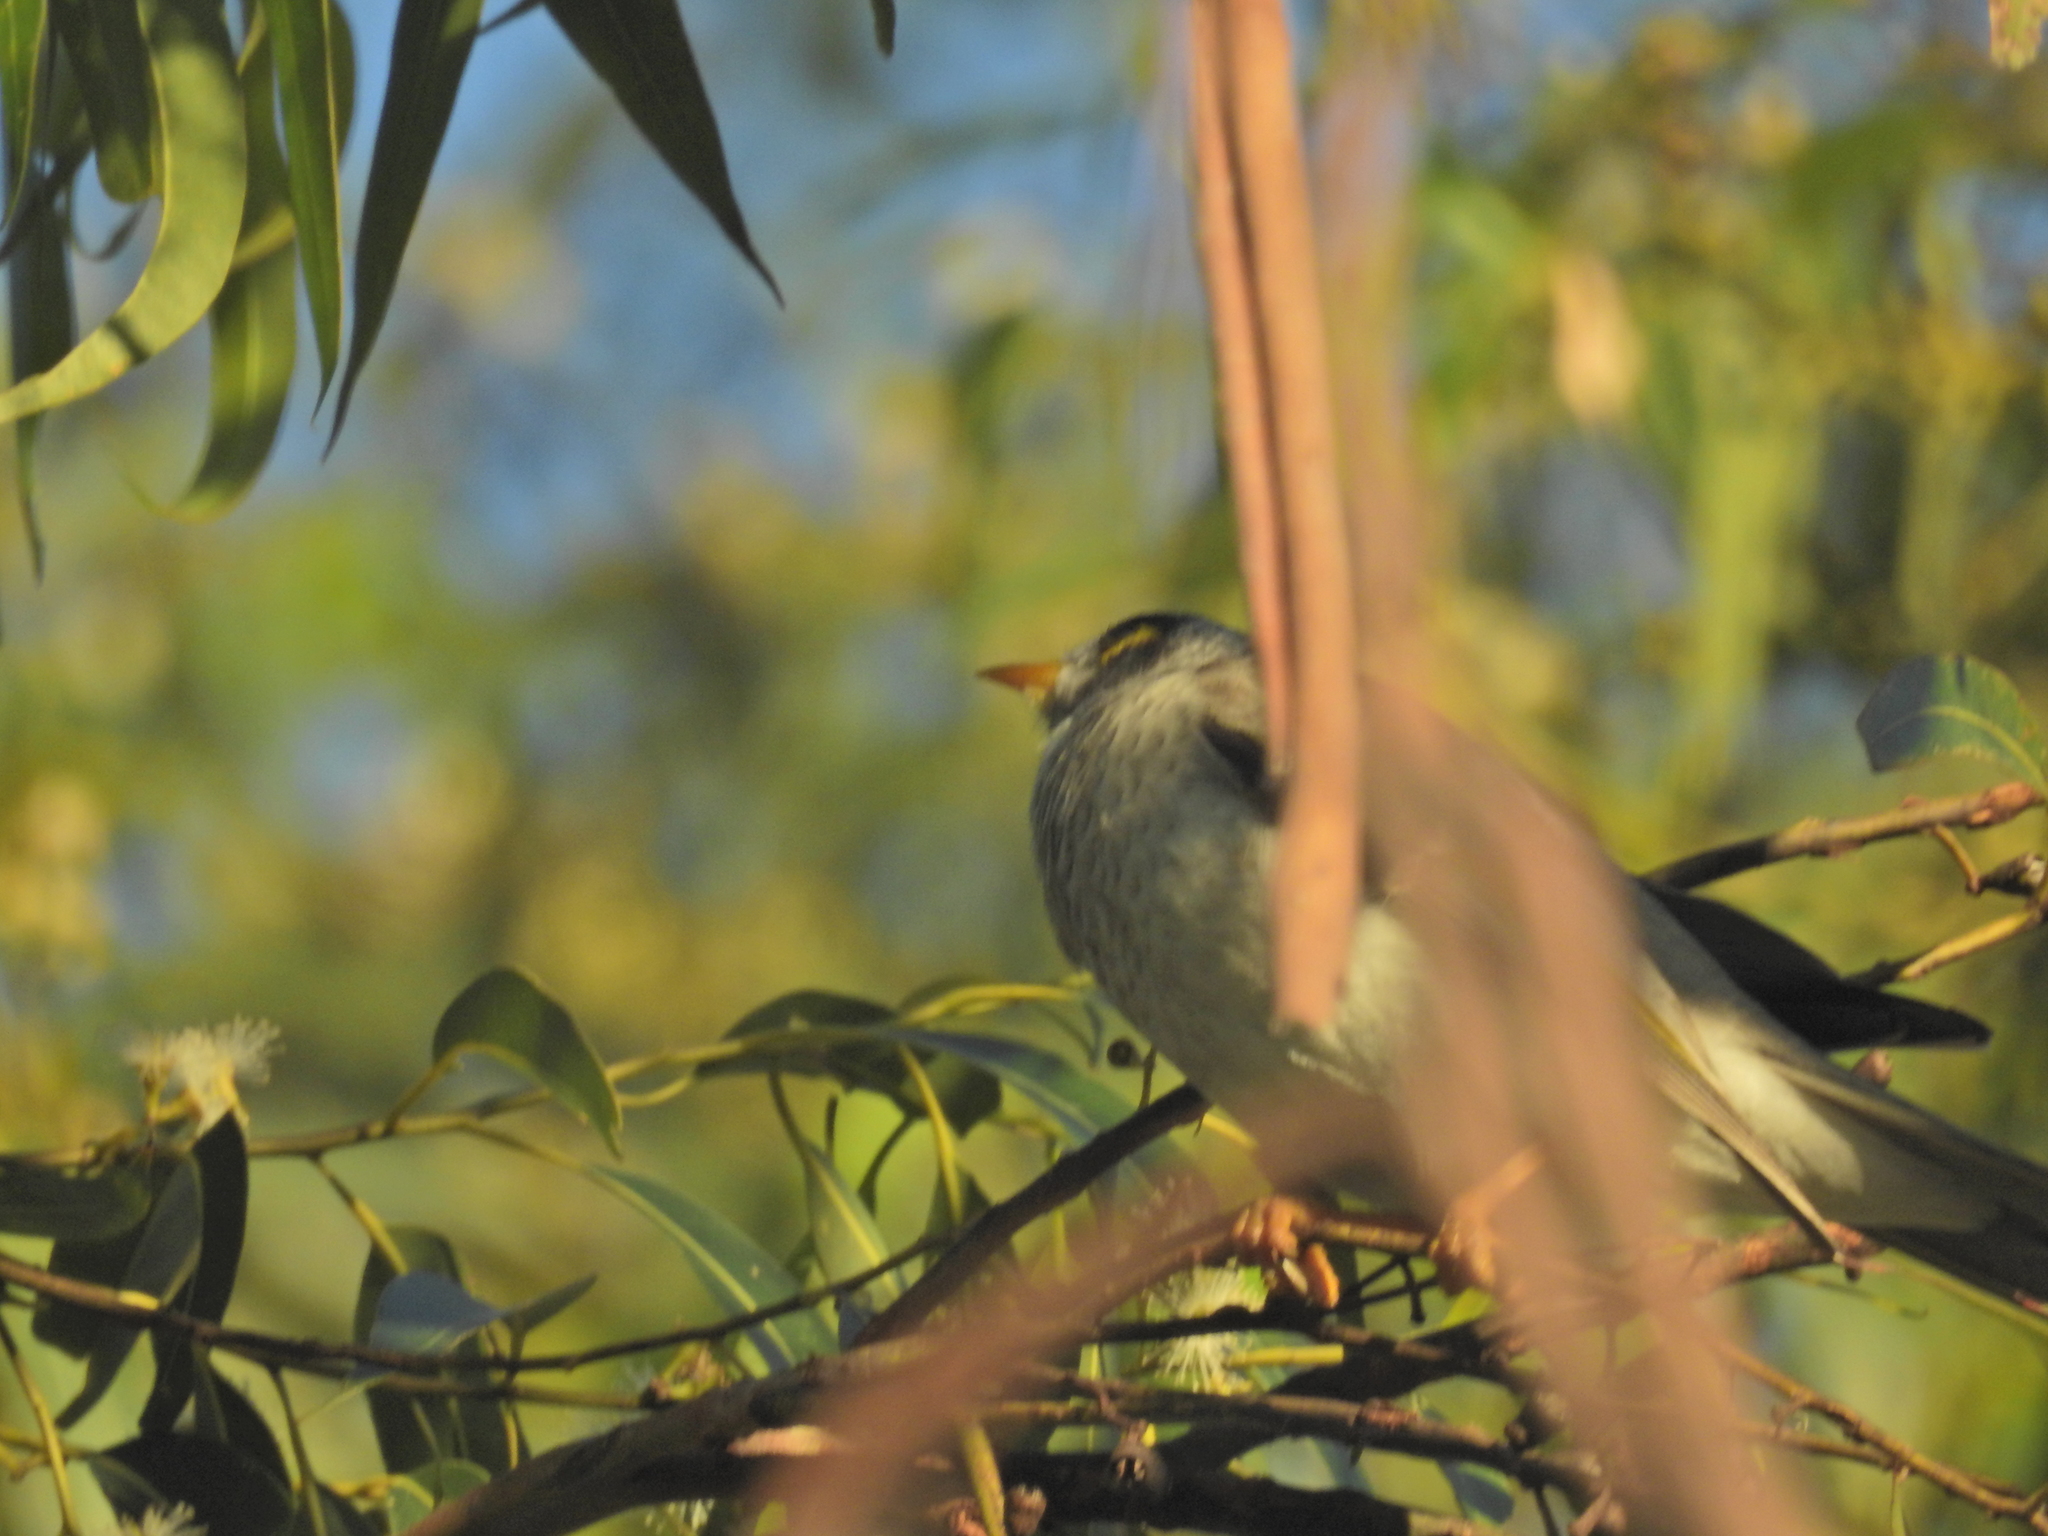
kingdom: Animalia
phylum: Chordata
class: Aves
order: Passeriformes
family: Meliphagidae
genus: Manorina
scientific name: Manorina melanocephala
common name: Noisy miner
